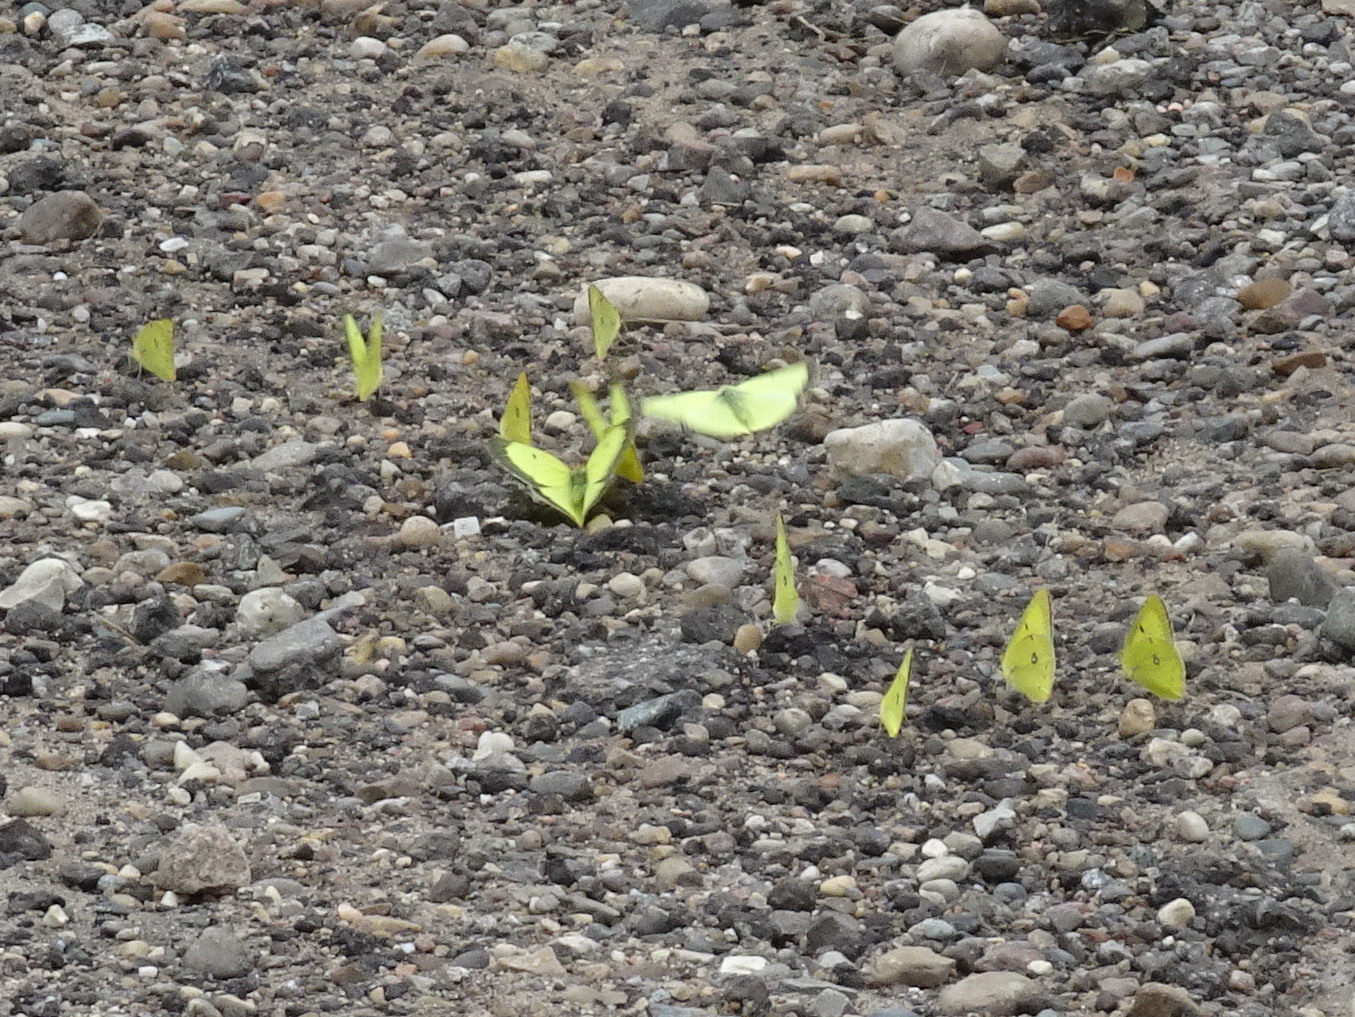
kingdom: Animalia
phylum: Arthropoda
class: Insecta
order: Lepidoptera
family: Pieridae
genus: Colias
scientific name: Colias philodice
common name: Clouded sulphur
